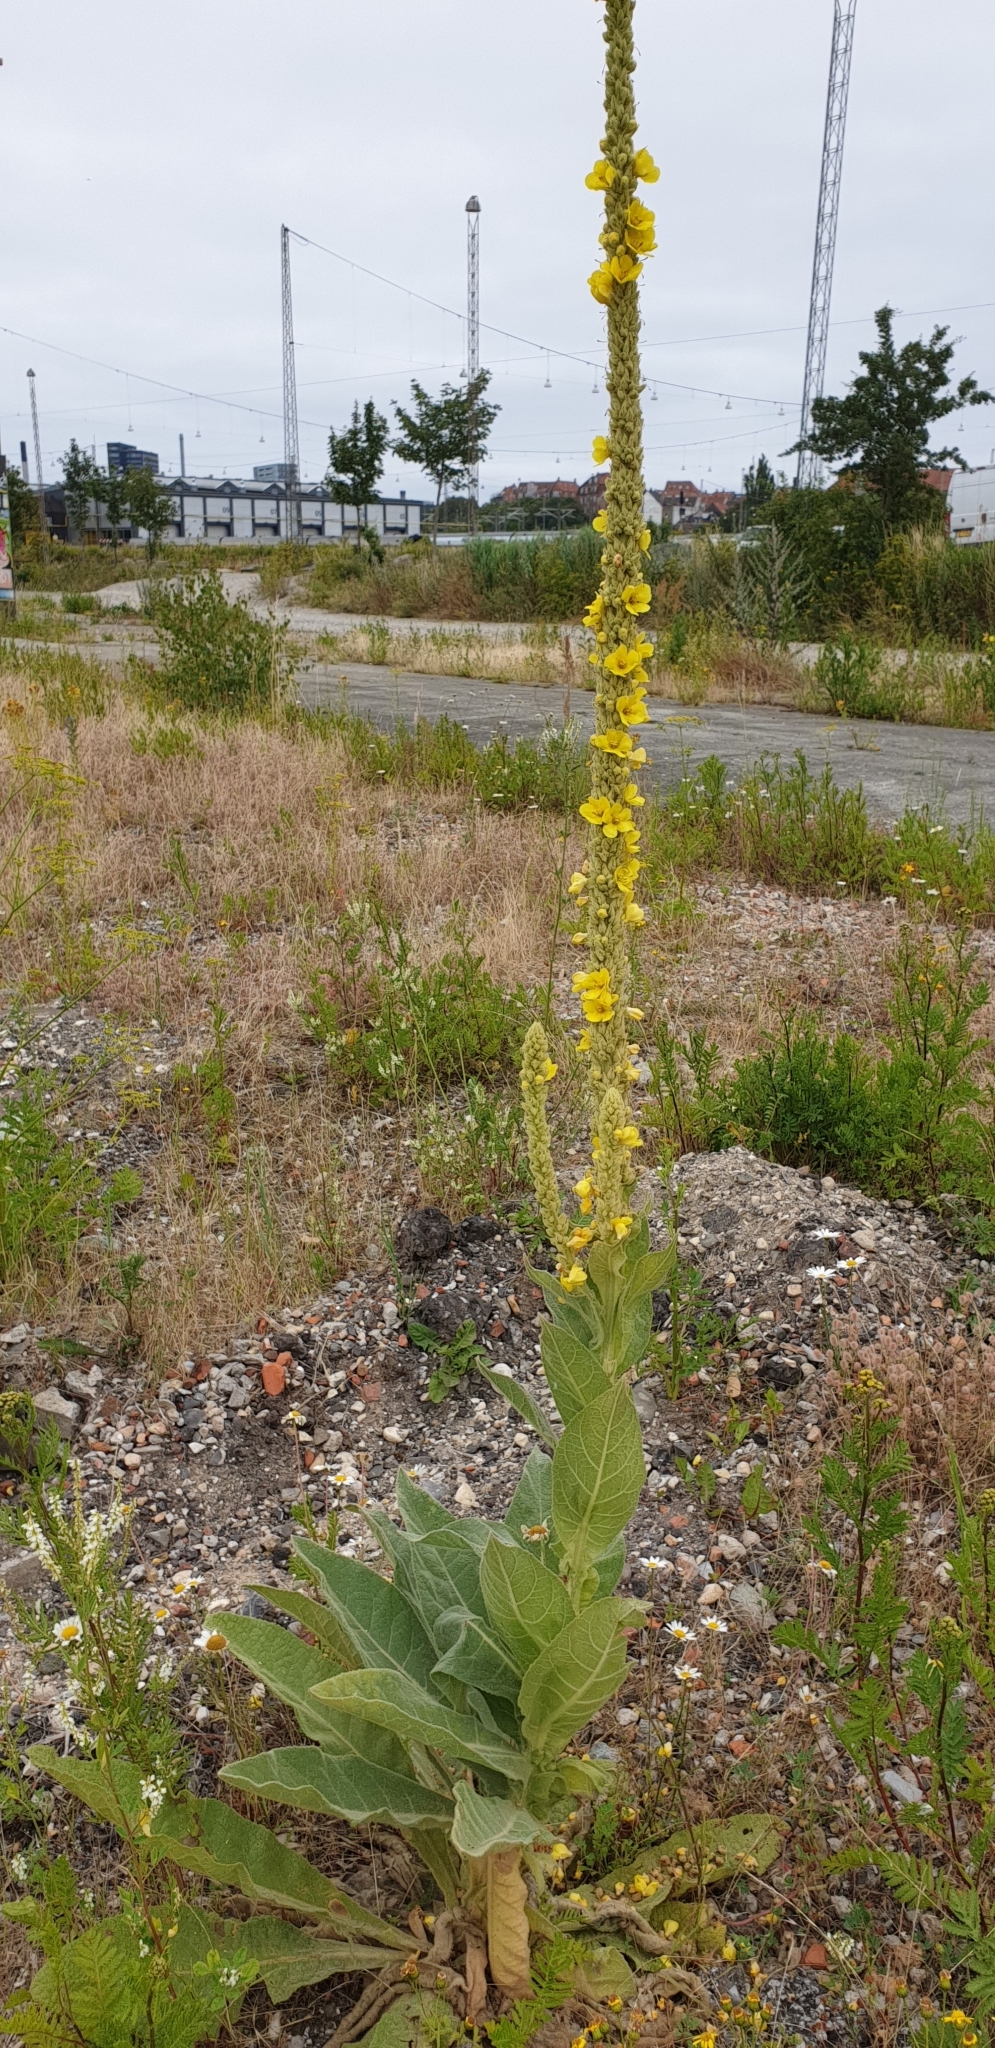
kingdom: Plantae
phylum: Tracheophyta
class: Magnoliopsida
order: Lamiales
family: Scrophulariaceae
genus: Verbascum
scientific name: Verbascum thapsus
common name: Common mullein
